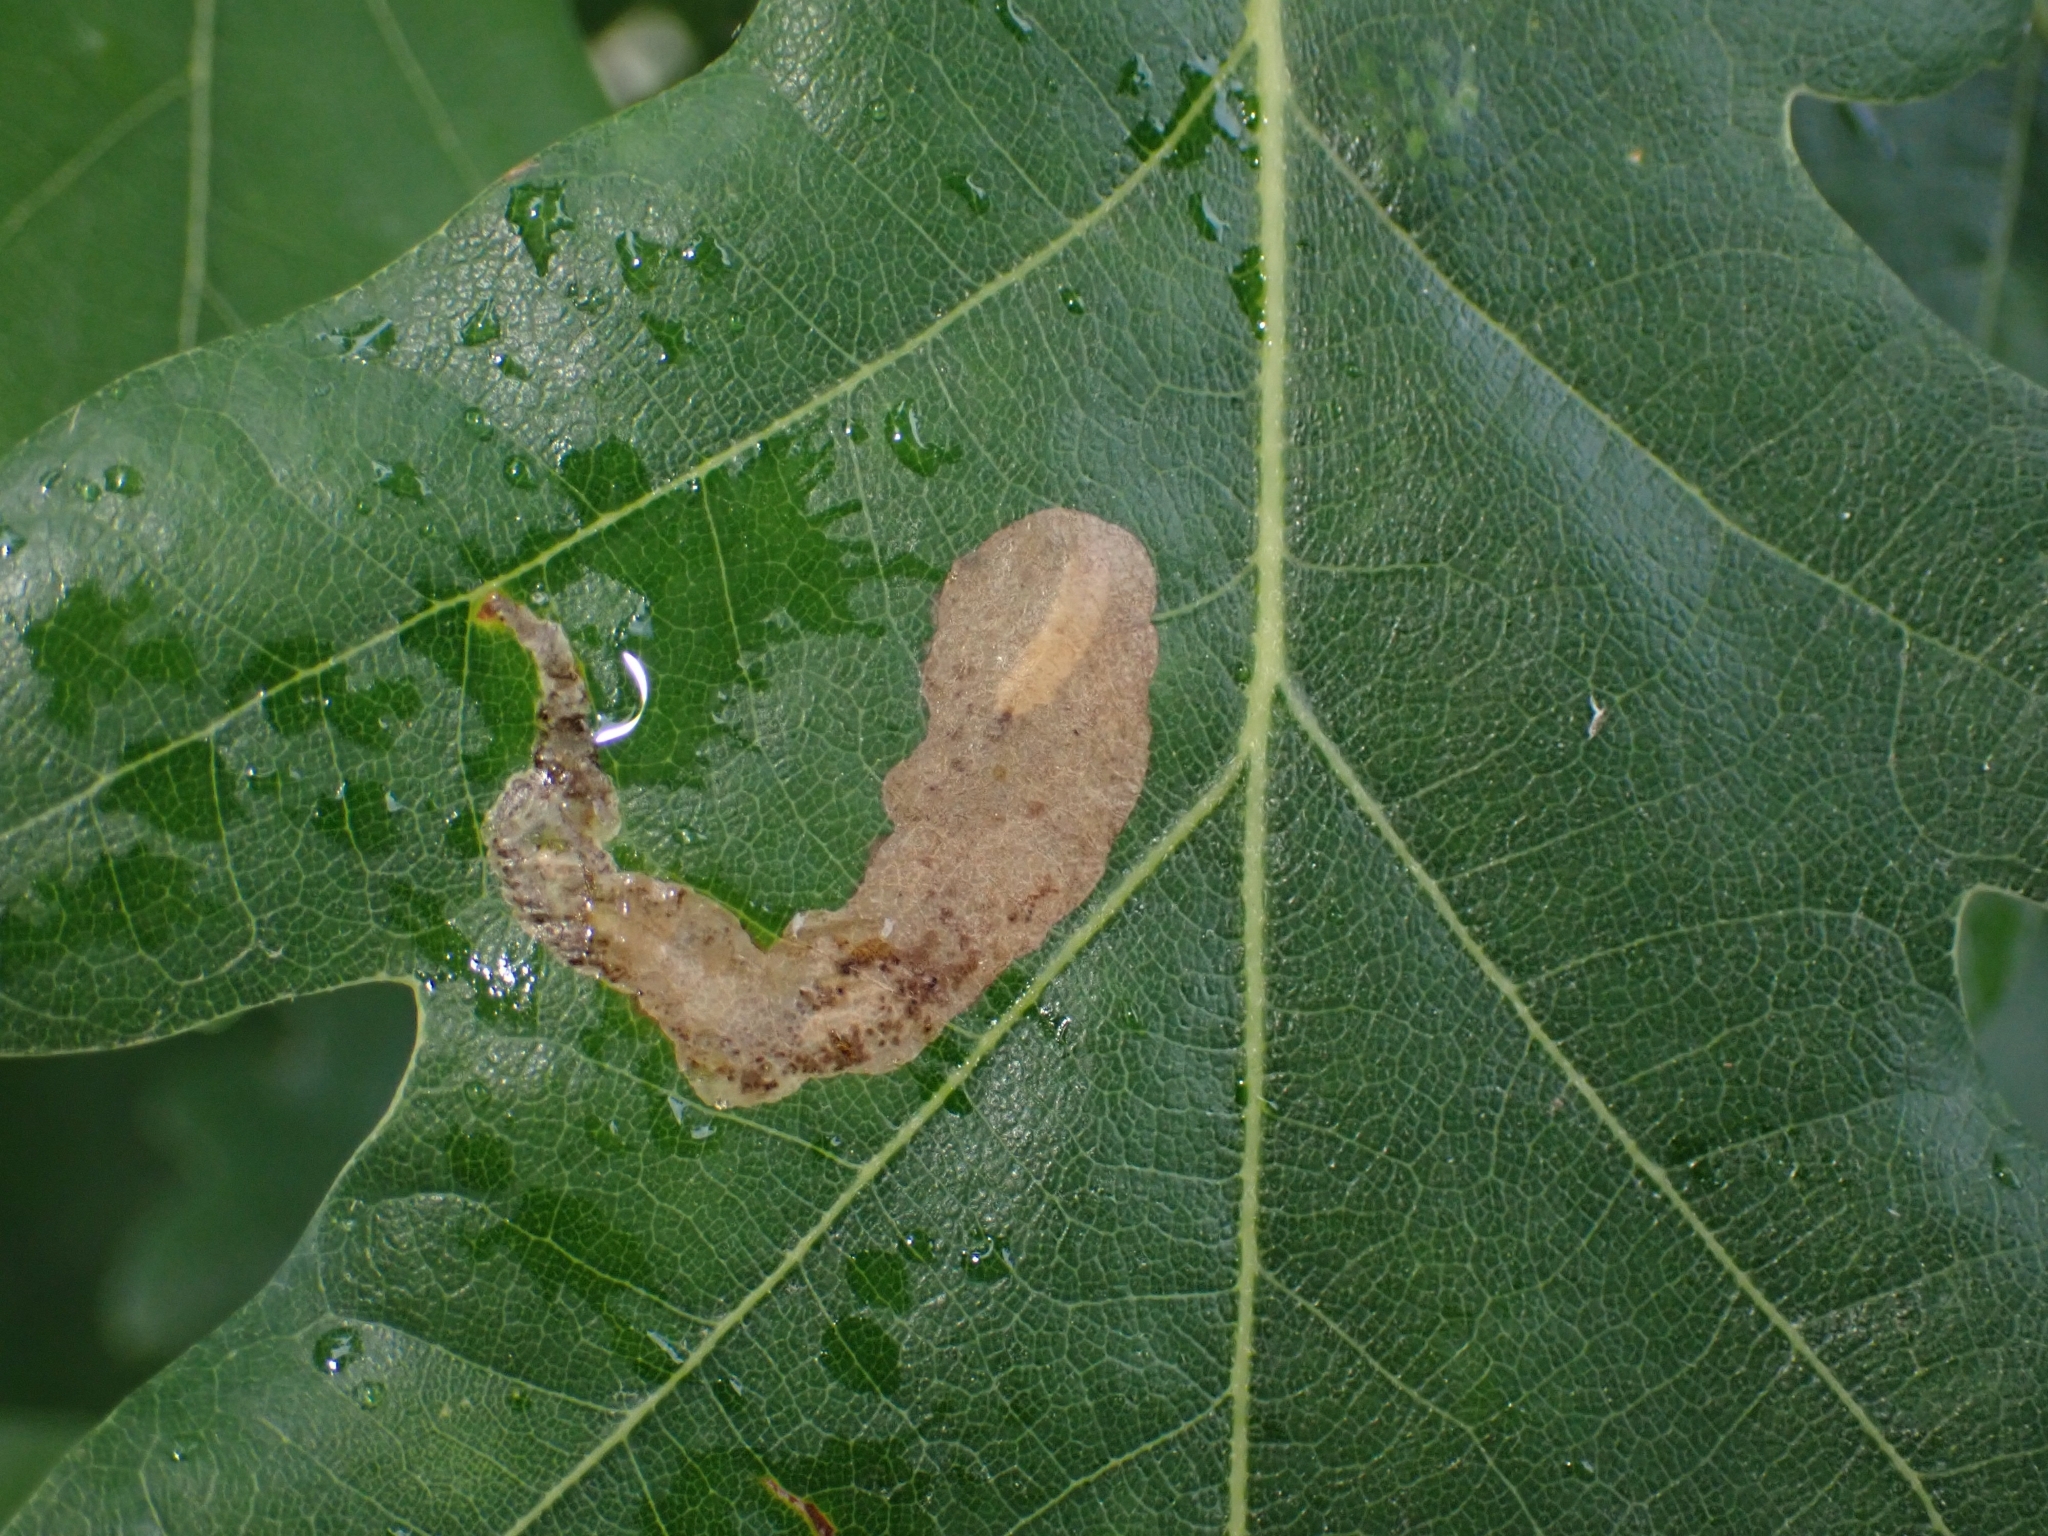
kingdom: Animalia
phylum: Arthropoda
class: Insecta
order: Hymenoptera
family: Tenthredinidae
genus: Profenusa
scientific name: Profenusa pygmaea
